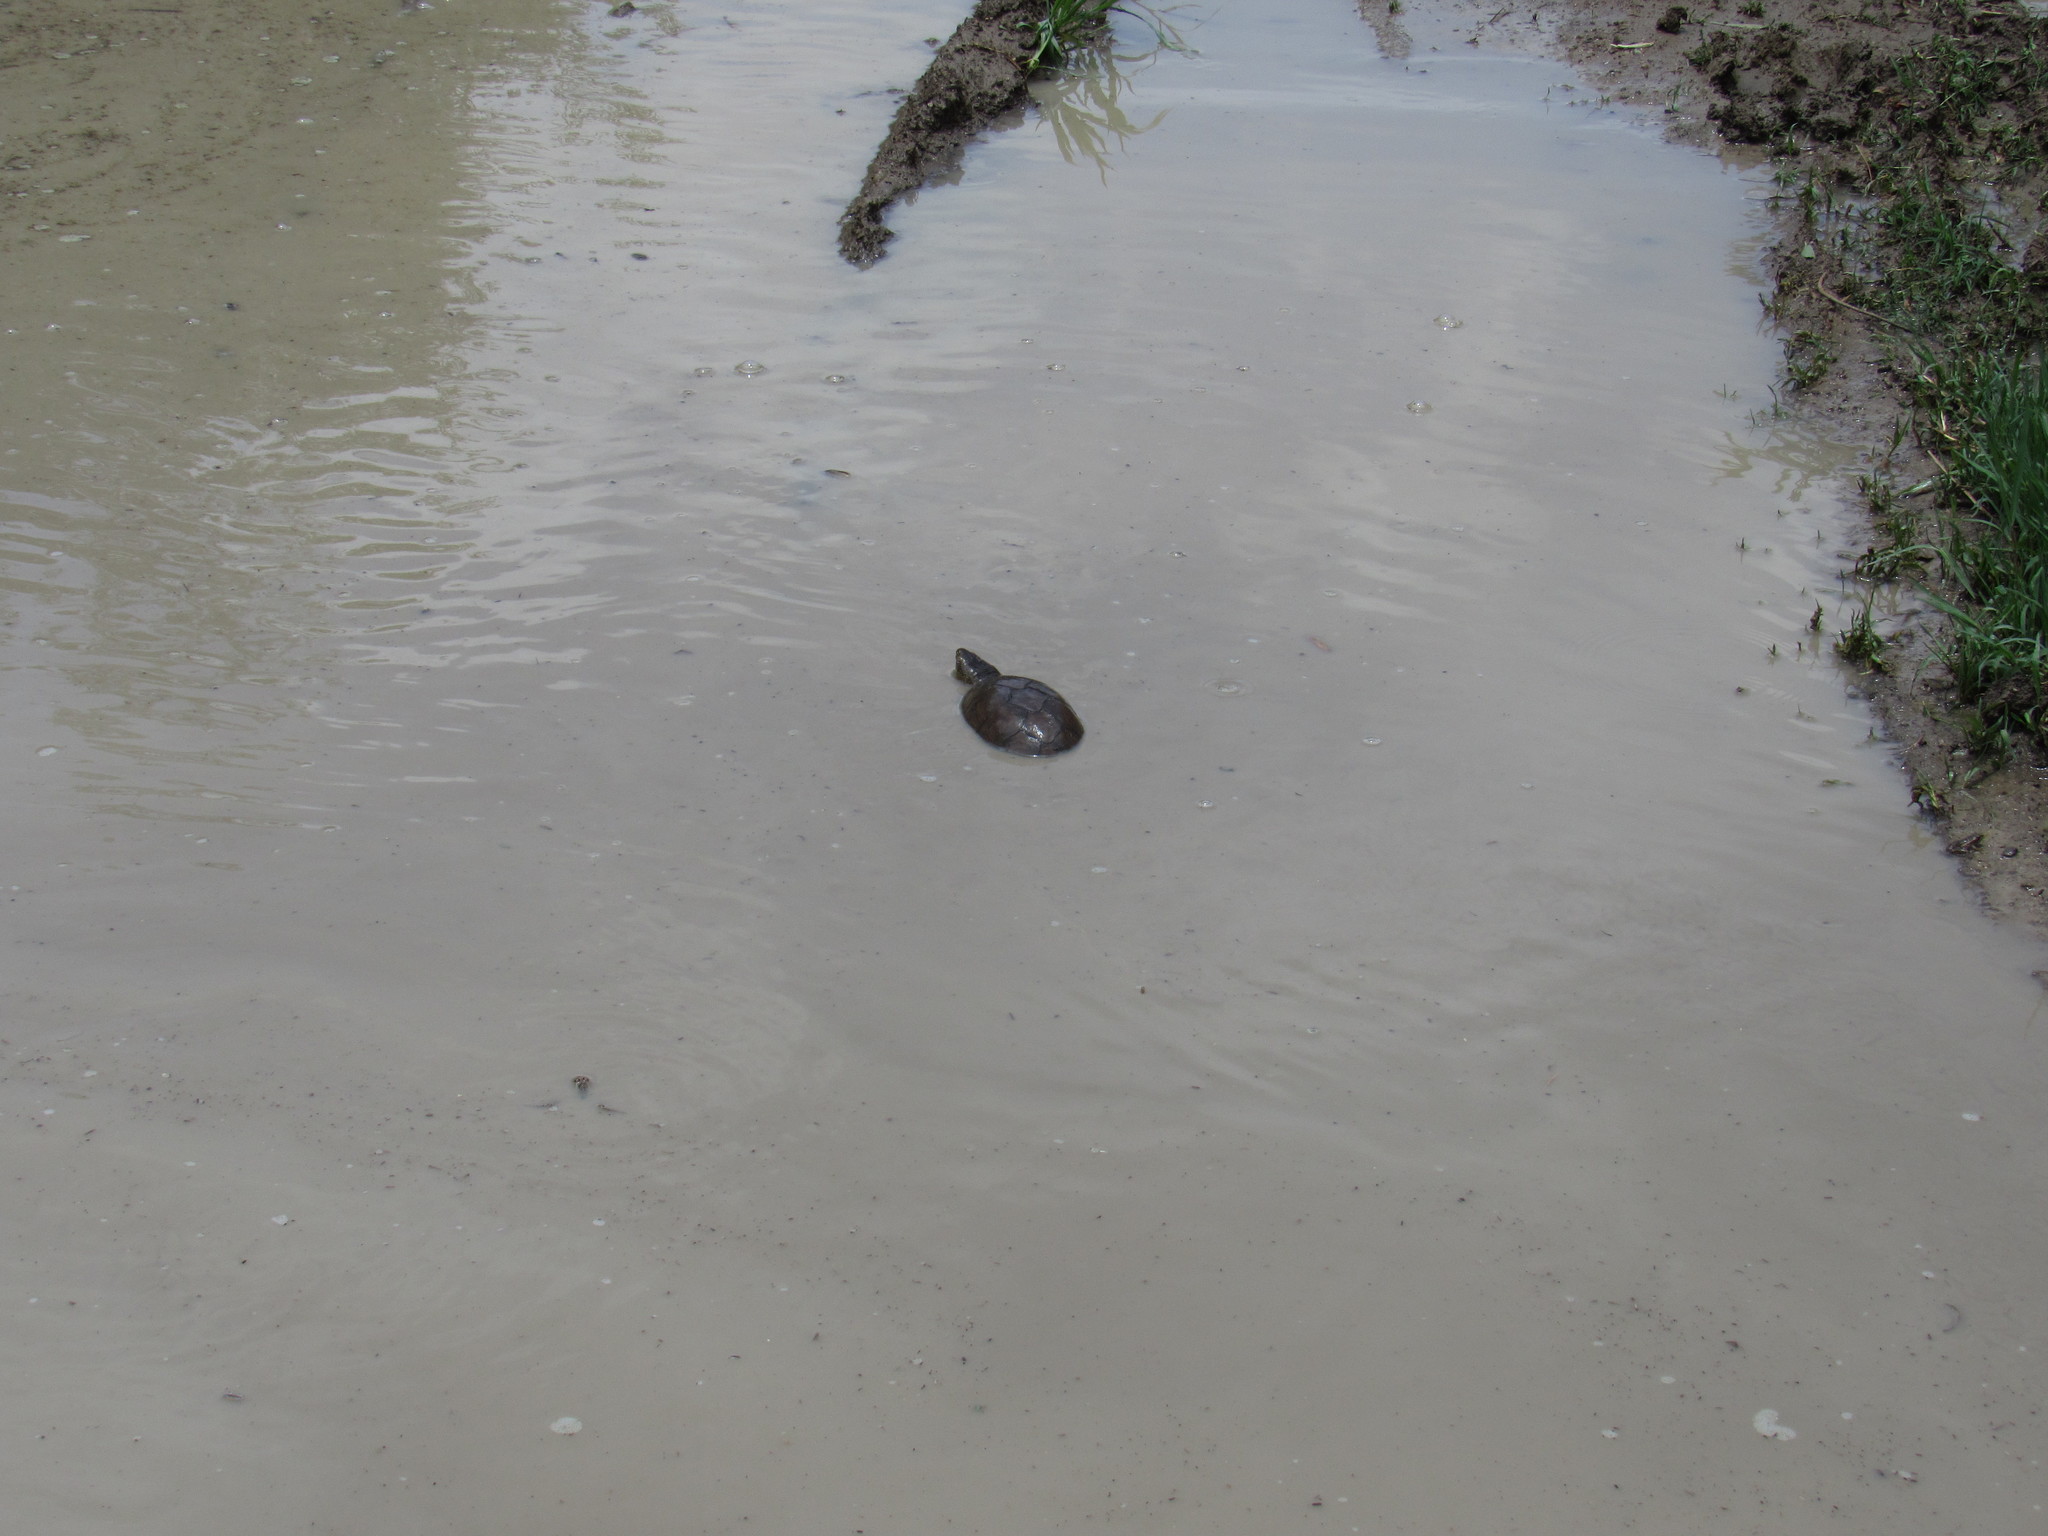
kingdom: Animalia
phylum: Chordata
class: Testudines
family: Kinosternidae
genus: Kinosternon
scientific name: Kinosternon integrum
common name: Mexican mud turtle
